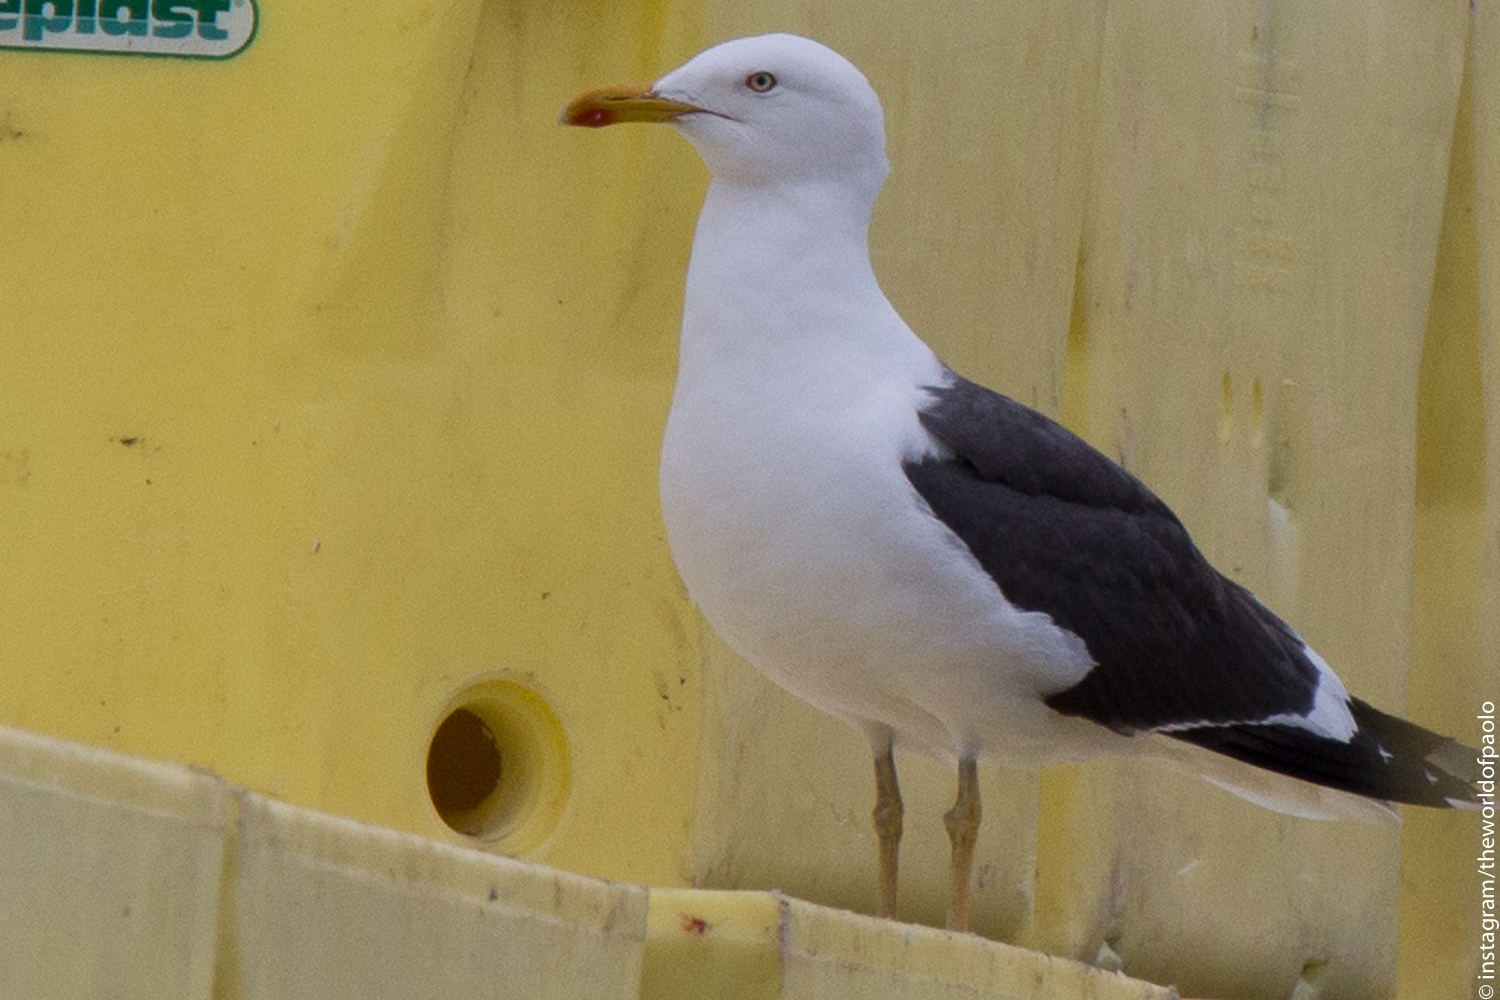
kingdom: Animalia
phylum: Chordata
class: Aves
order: Charadriiformes
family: Laridae
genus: Larus
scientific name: Larus fuscus
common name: Lesser black-backed gull
